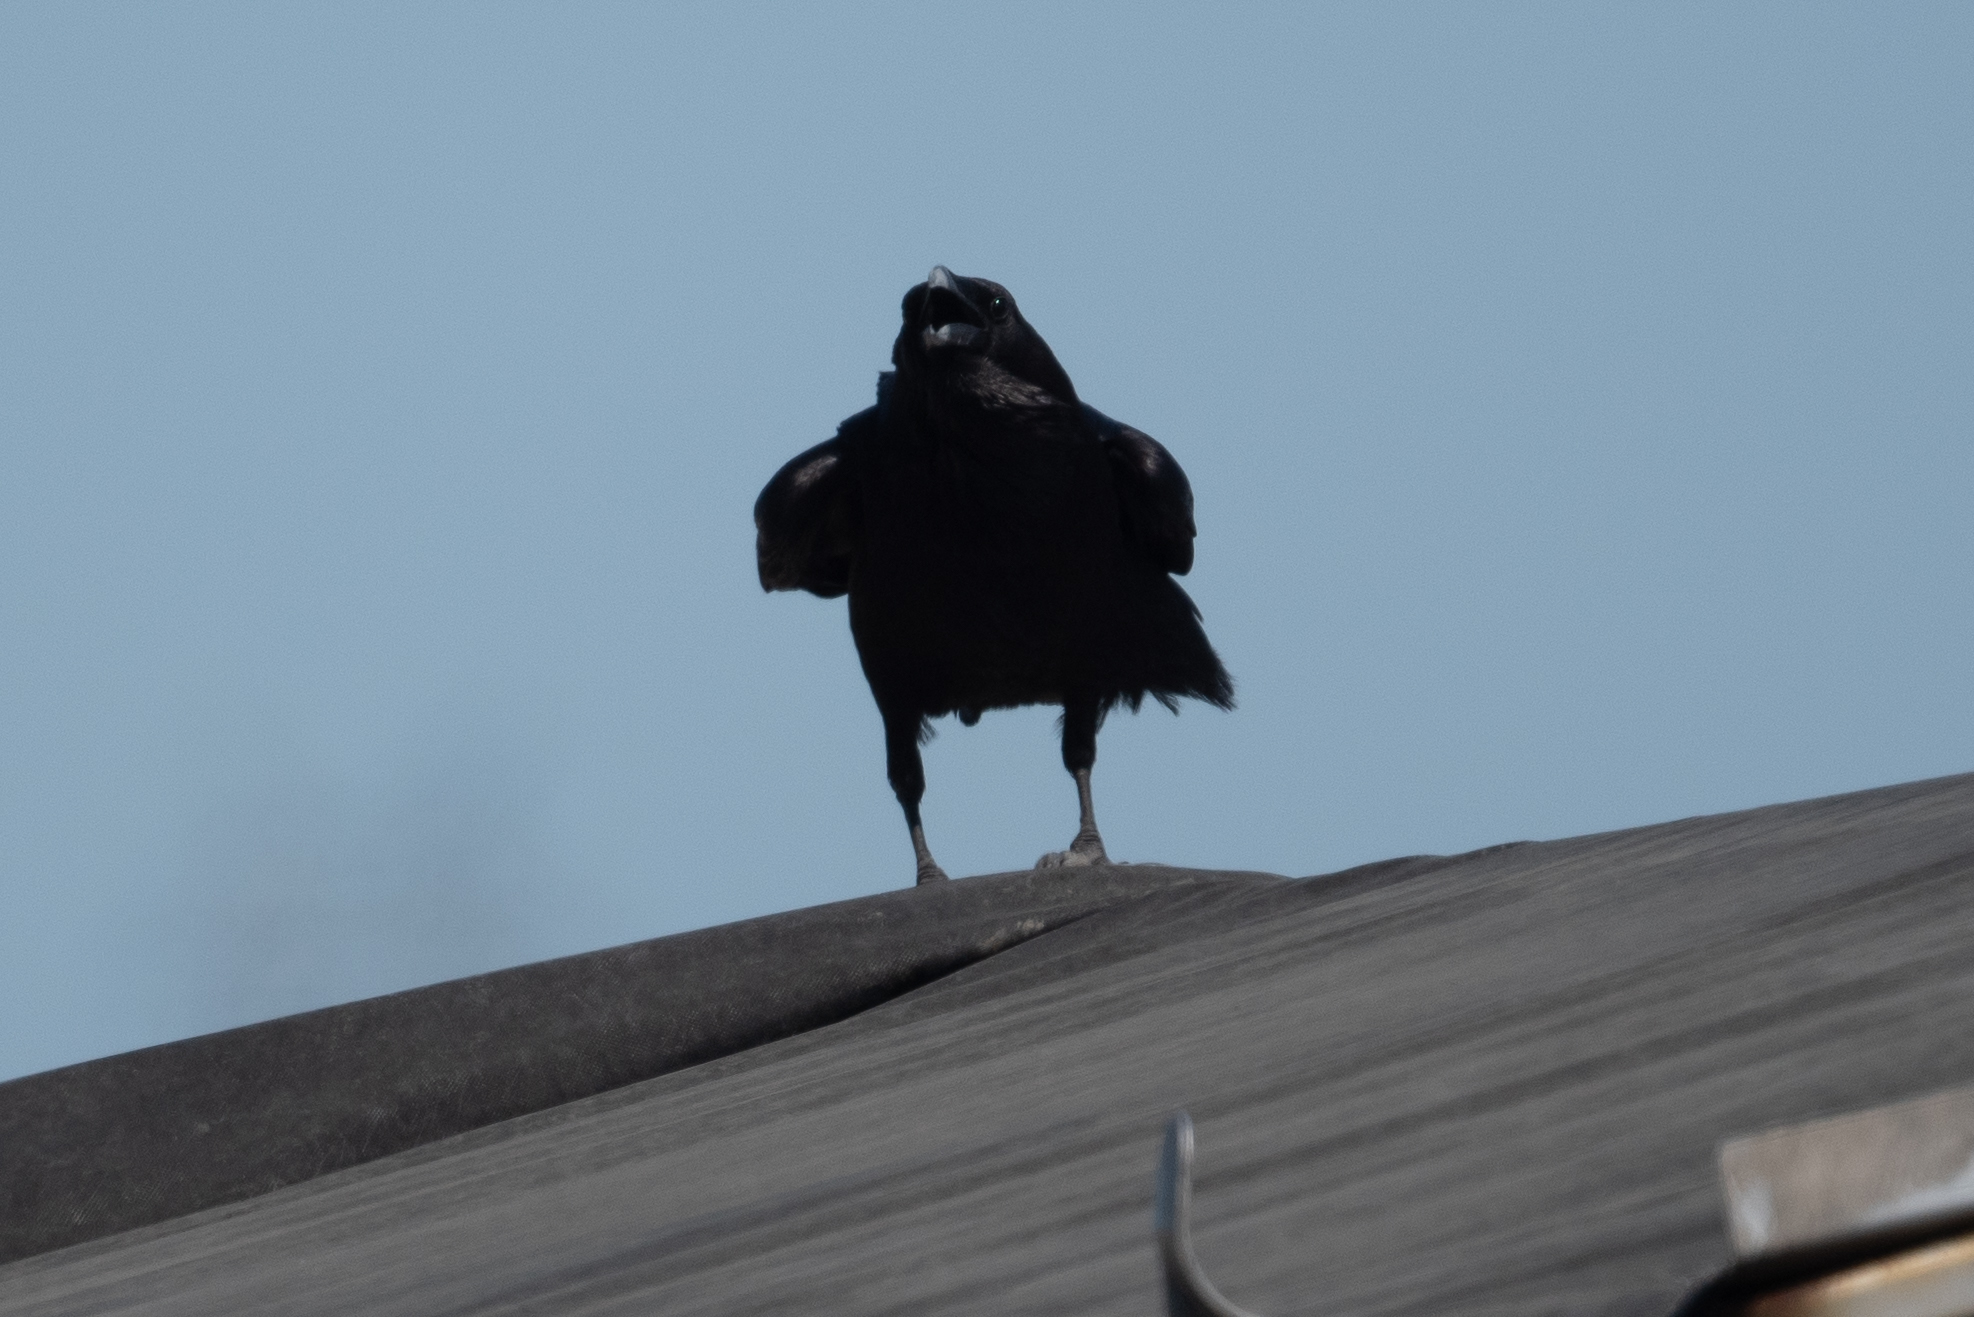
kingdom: Animalia
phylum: Chordata
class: Aves
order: Passeriformes
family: Corvidae
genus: Corvus
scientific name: Corvus corax
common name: Common raven
